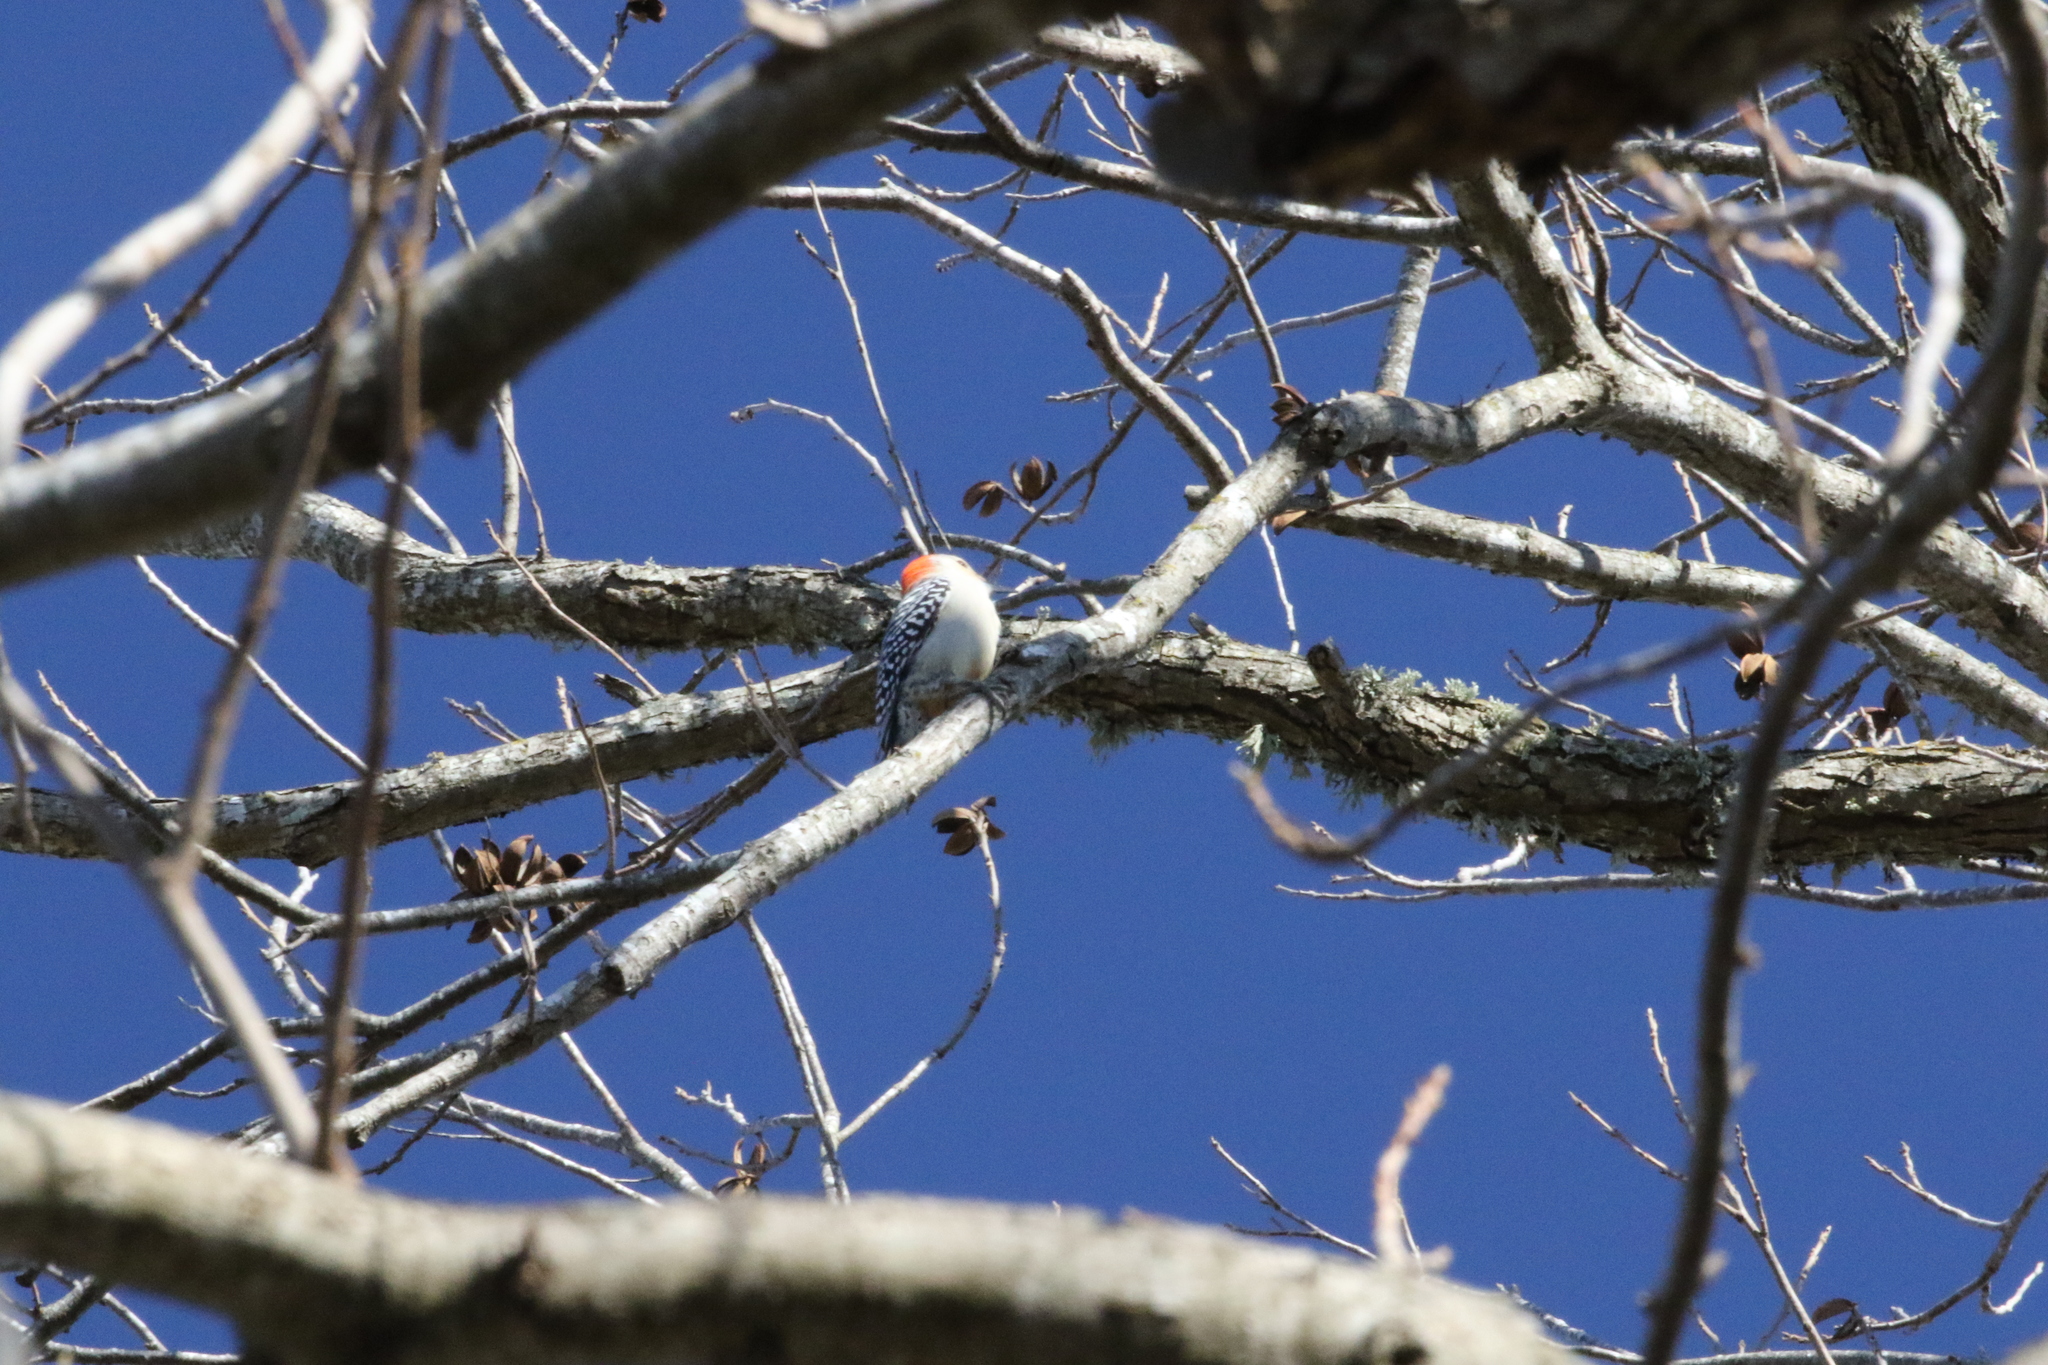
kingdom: Animalia
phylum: Chordata
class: Aves
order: Piciformes
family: Picidae
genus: Melanerpes
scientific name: Melanerpes carolinus
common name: Red-bellied woodpecker
